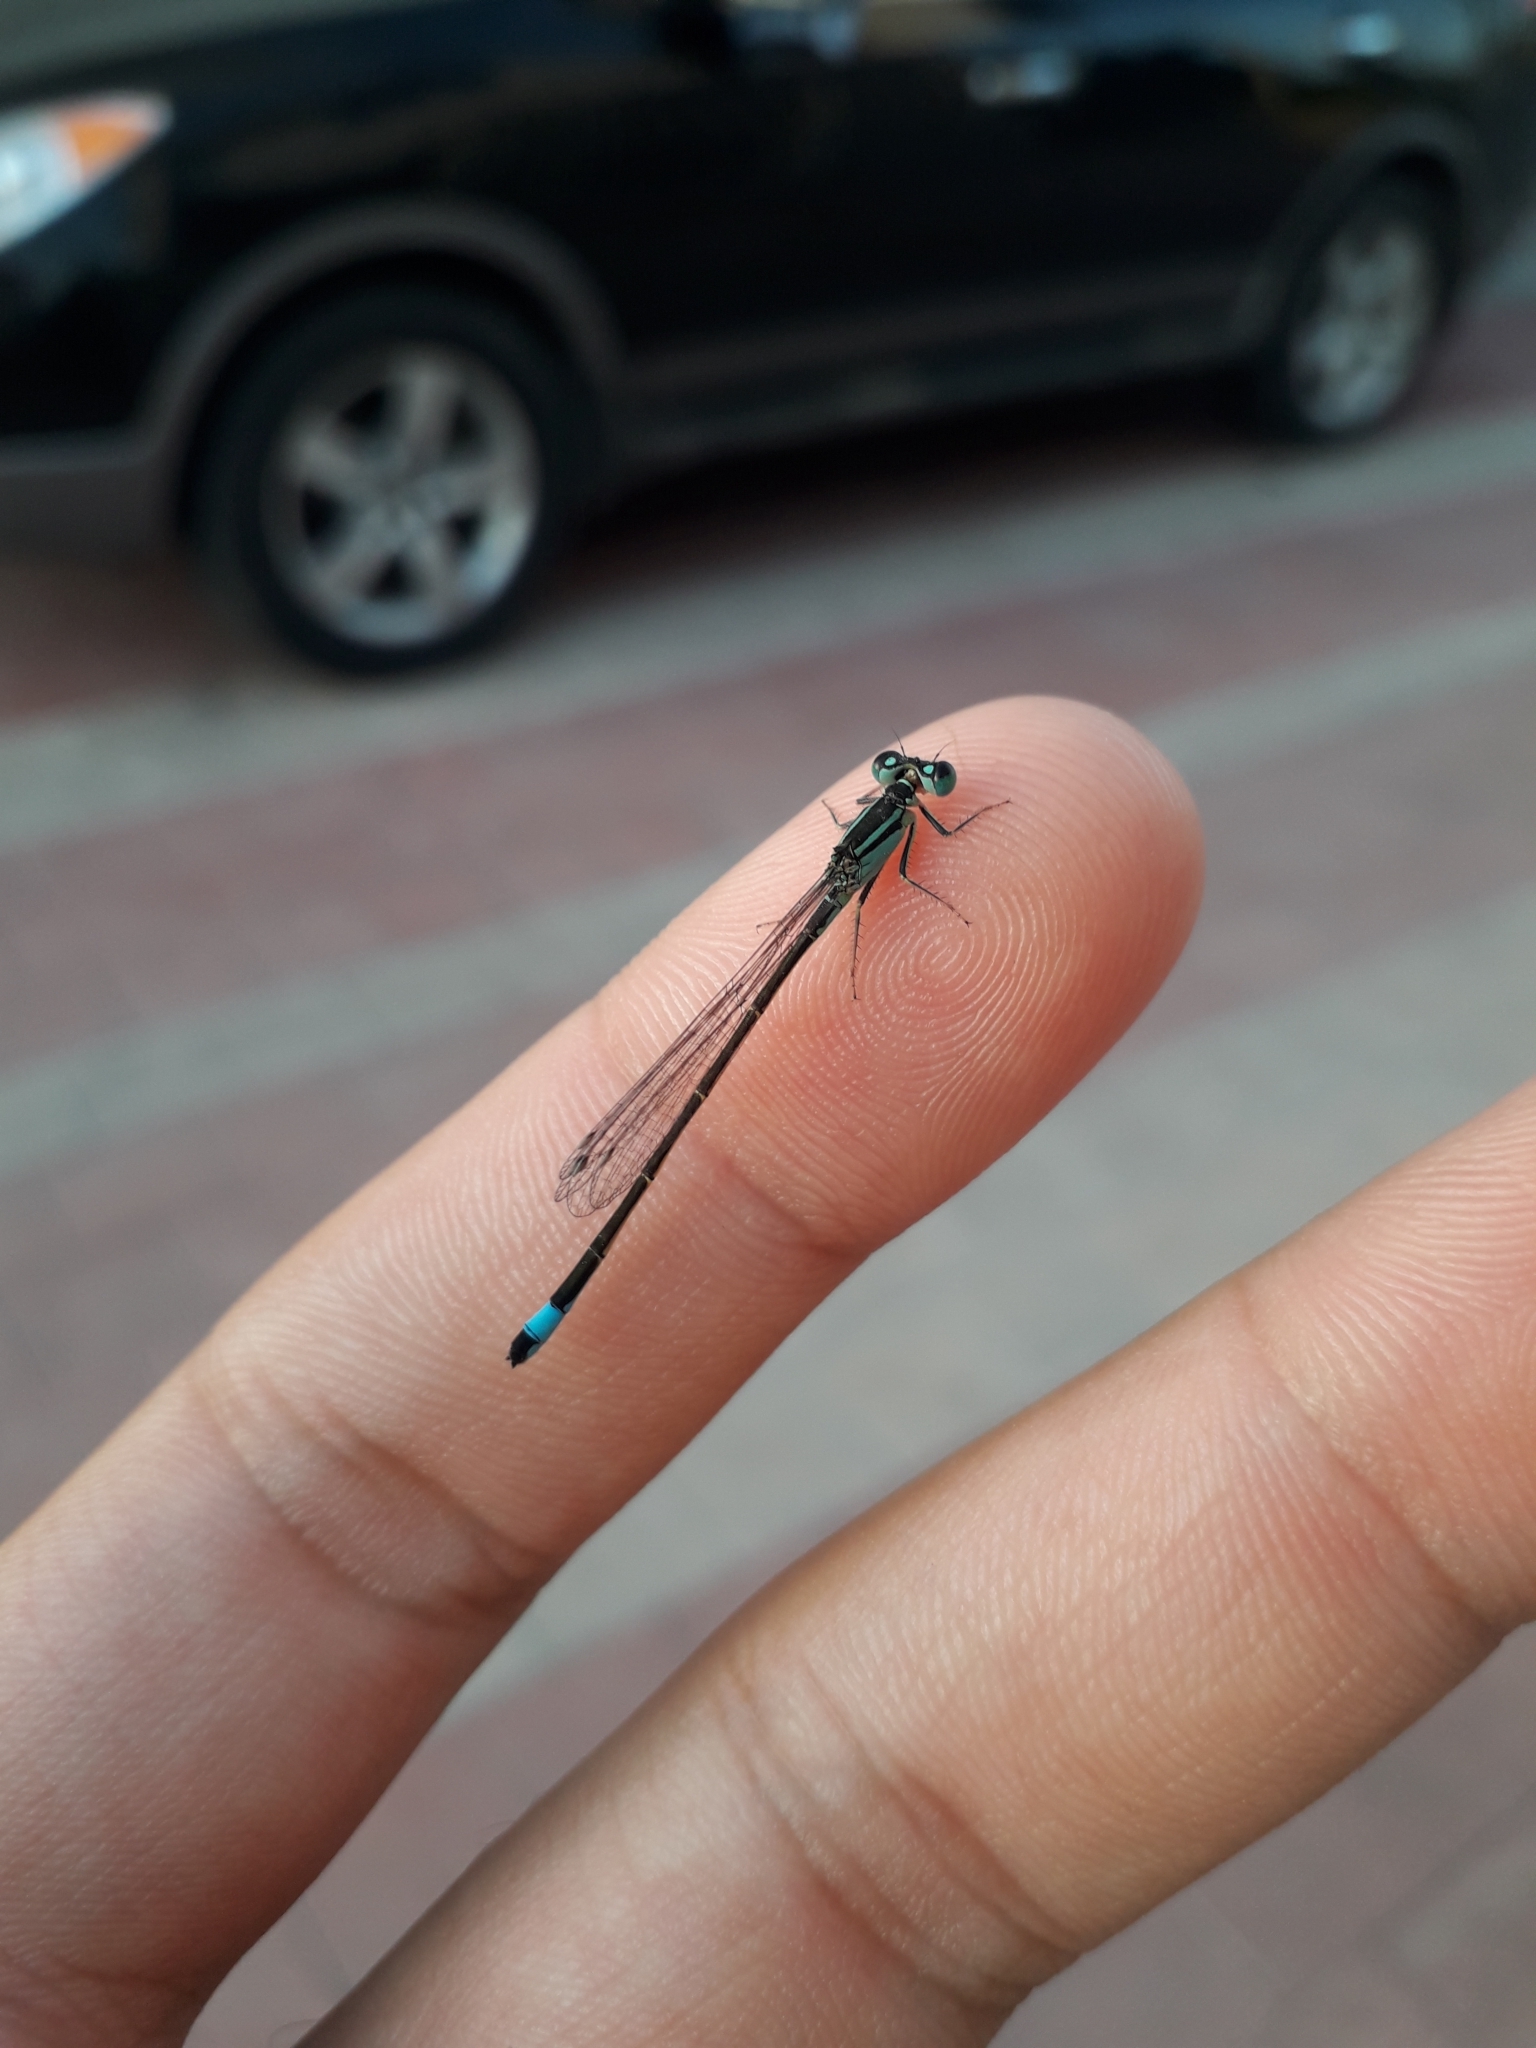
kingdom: Animalia
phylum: Arthropoda
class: Insecta
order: Odonata
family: Coenagrionidae
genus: Ischnura
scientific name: Ischnura elegans
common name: Blue-tailed damselfly
